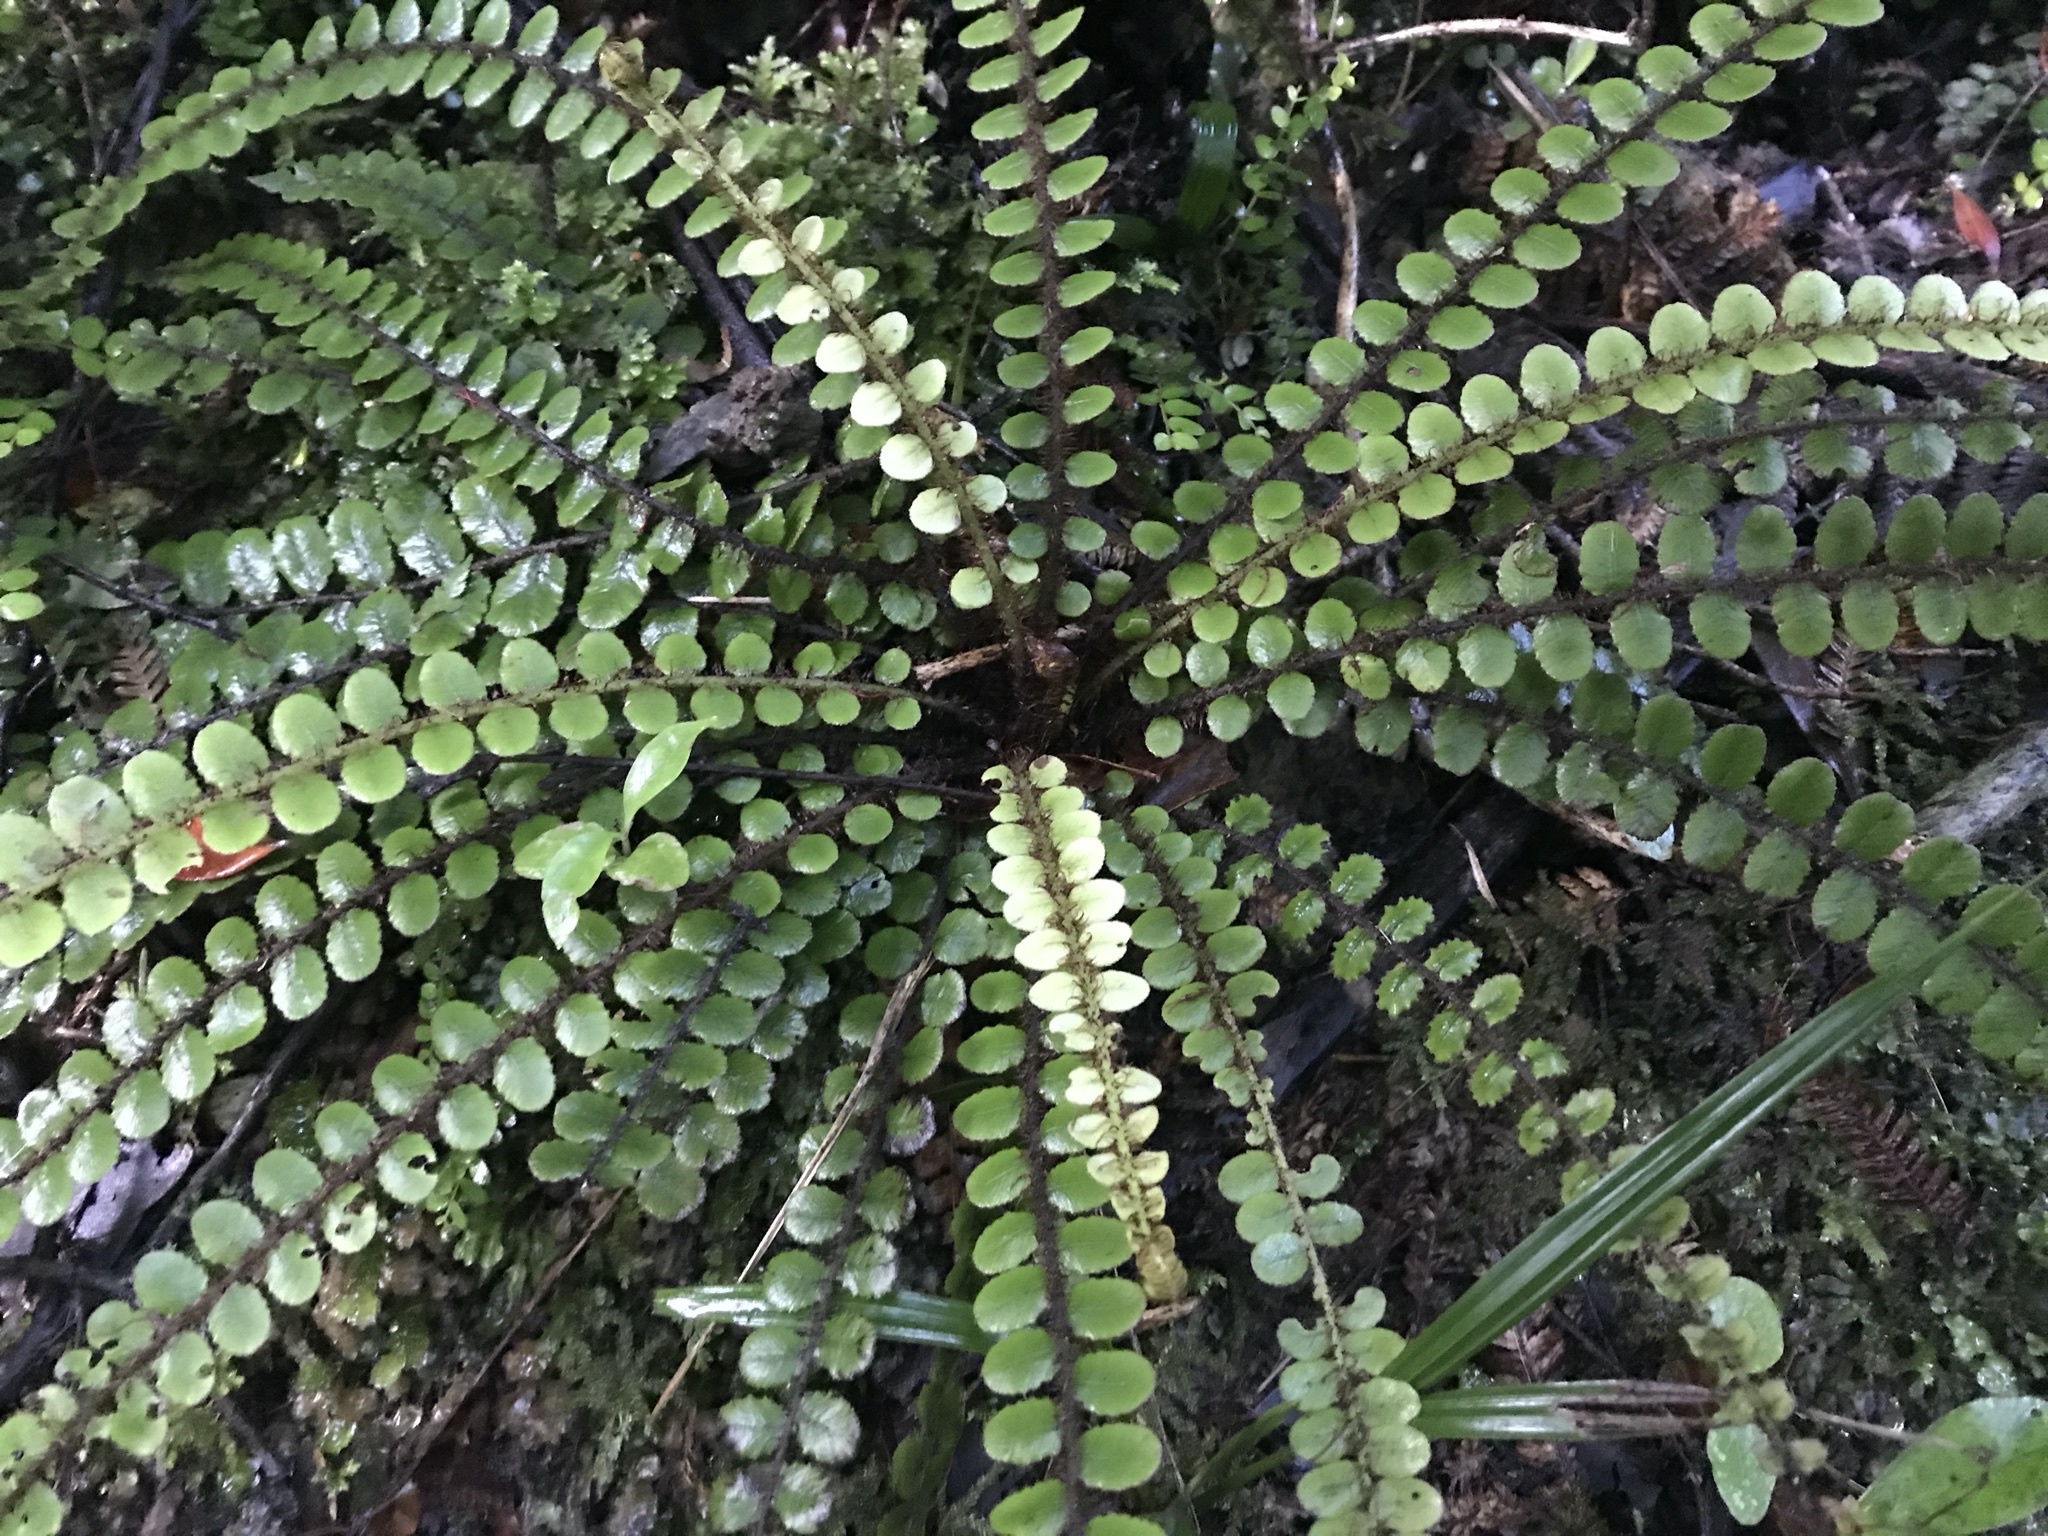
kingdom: Plantae
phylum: Tracheophyta
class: Polypodiopsida
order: Polypodiales
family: Blechnaceae
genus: Cranfillia
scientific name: Cranfillia fluviatilis
